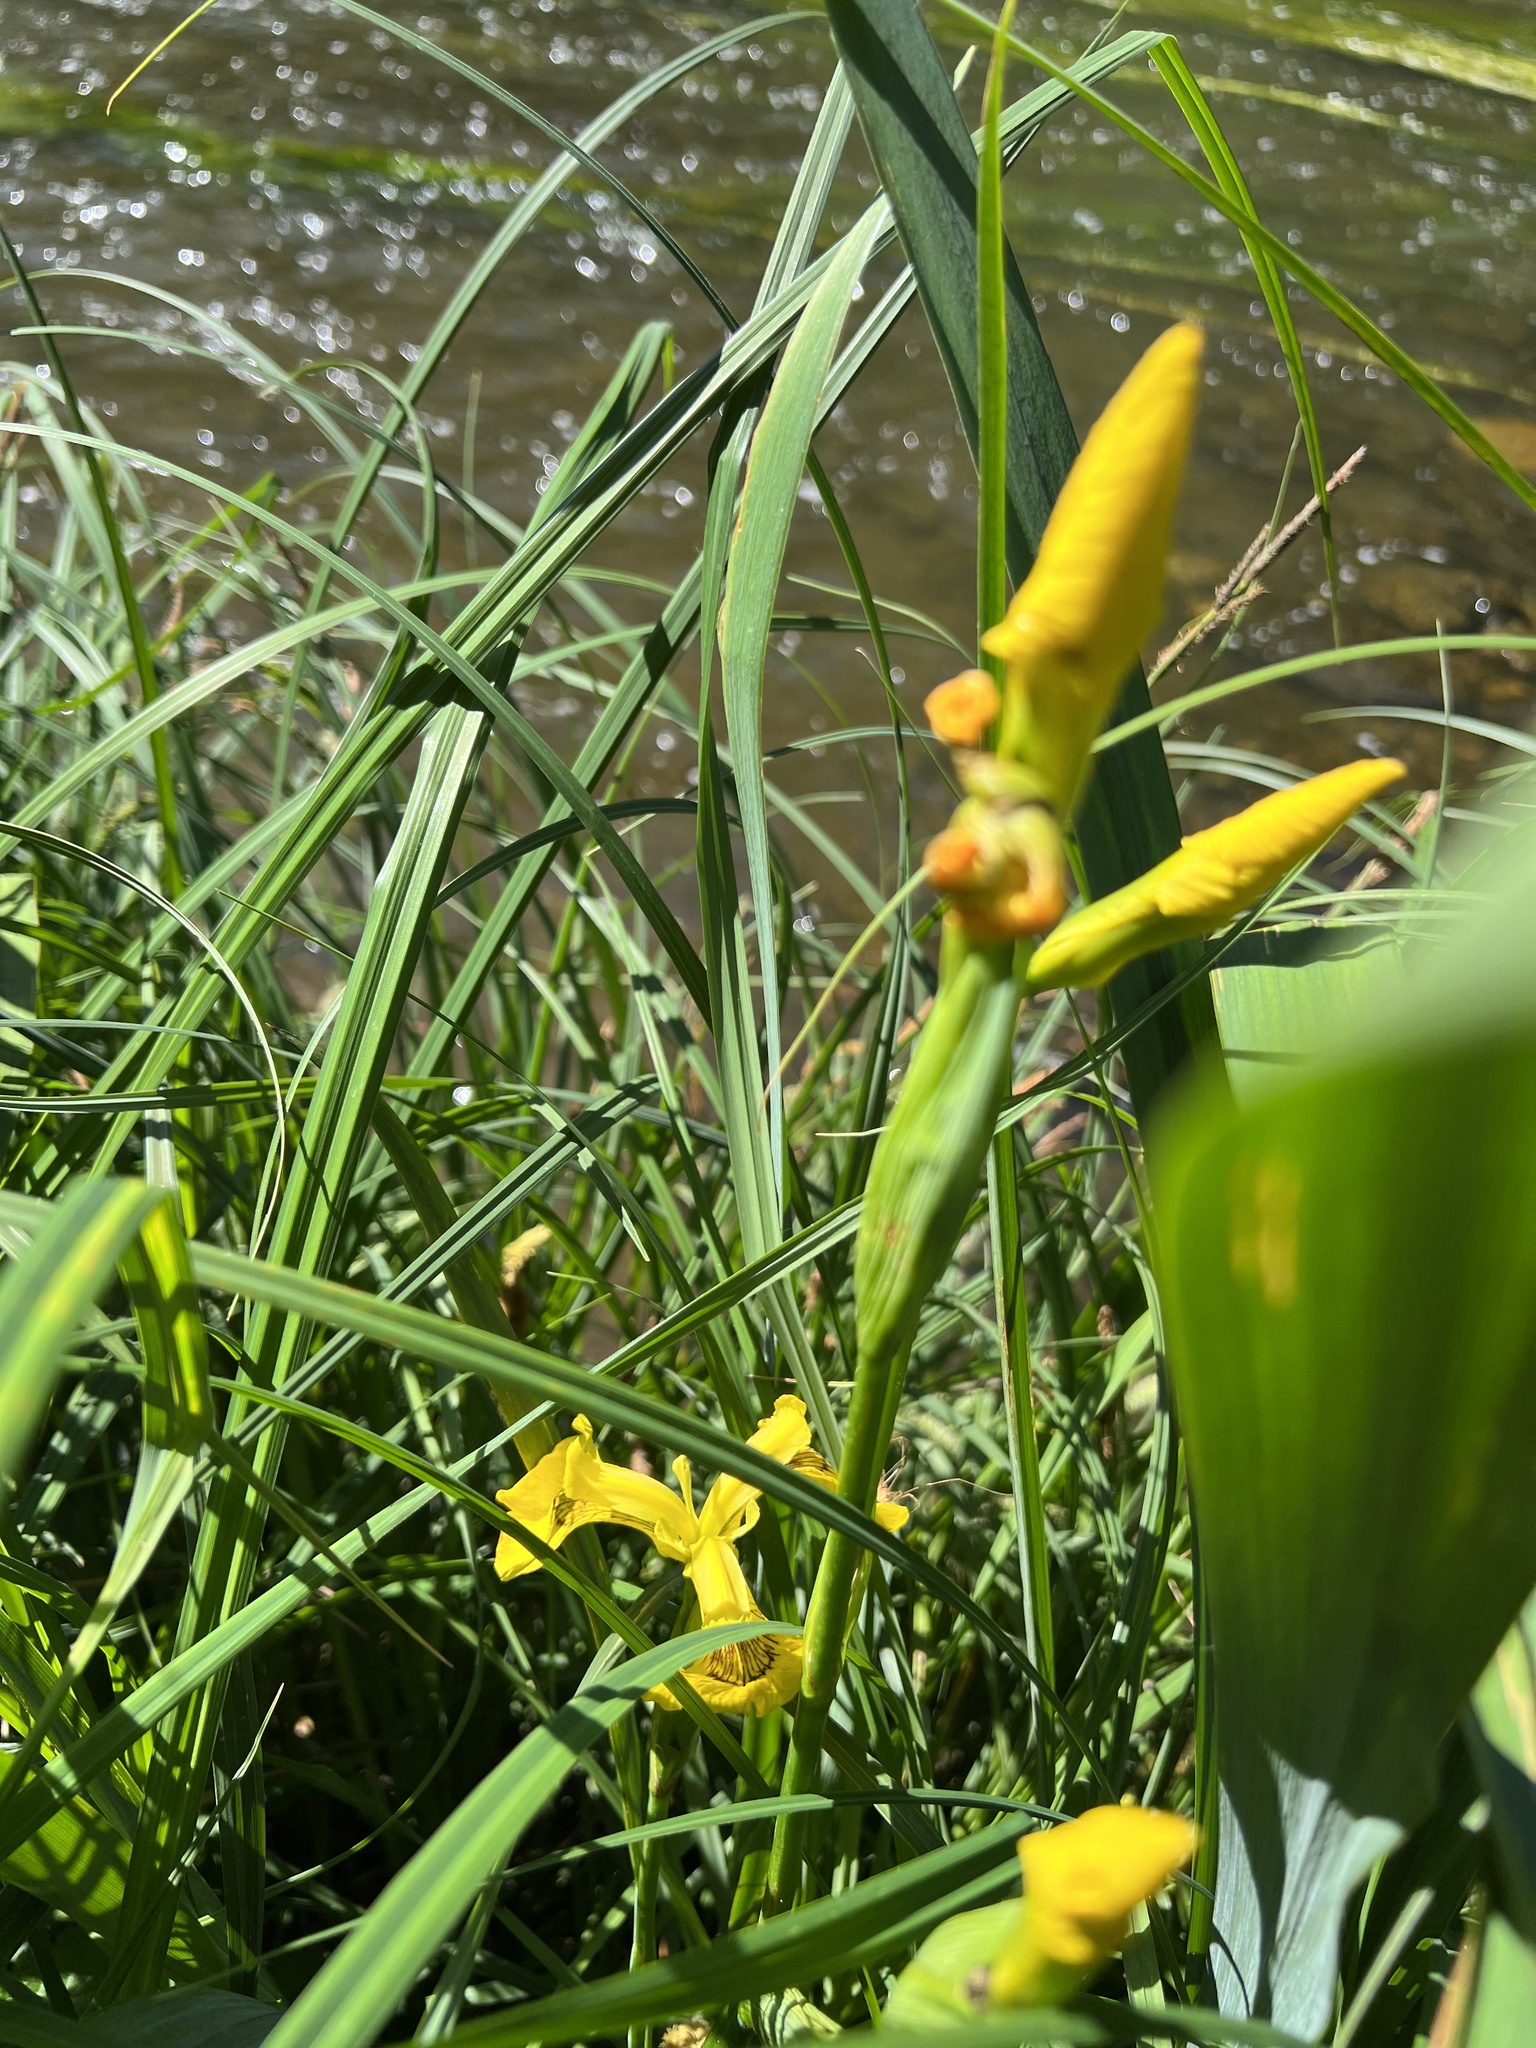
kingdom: Plantae
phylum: Tracheophyta
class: Liliopsida
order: Asparagales
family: Iridaceae
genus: Iris
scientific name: Iris pseudacorus
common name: Yellow flag
